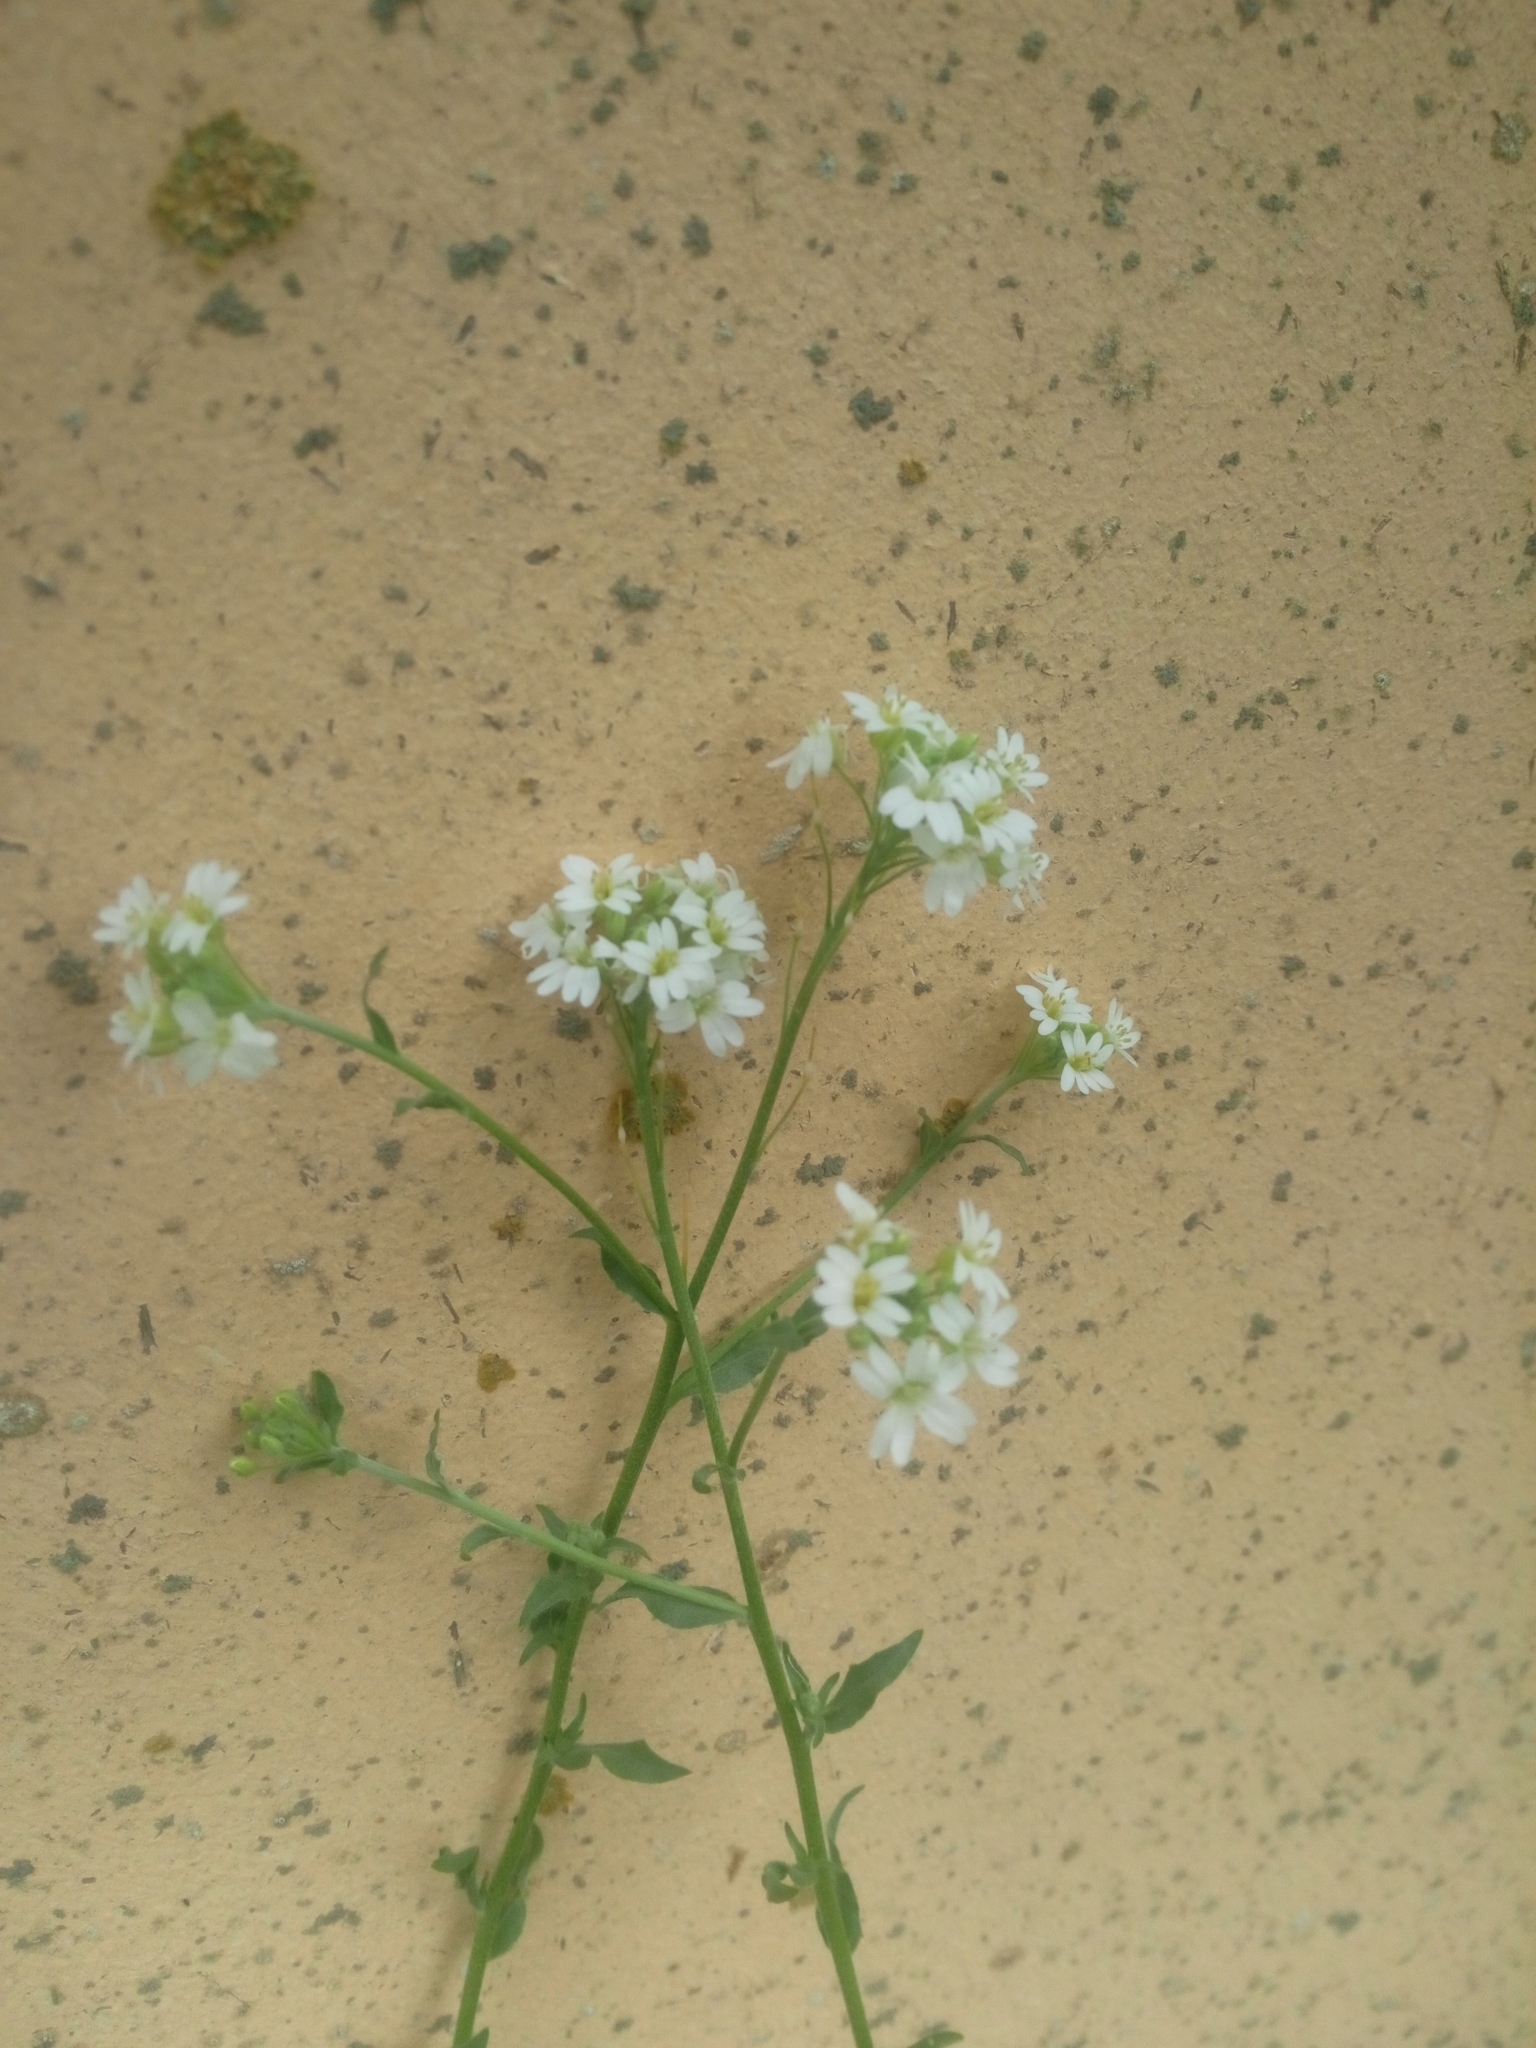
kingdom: Plantae
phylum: Tracheophyta
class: Magnoliopsida
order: Brassicales
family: Brassicaceae
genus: Berteroa
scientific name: Berteroa incana
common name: Hoary alison
